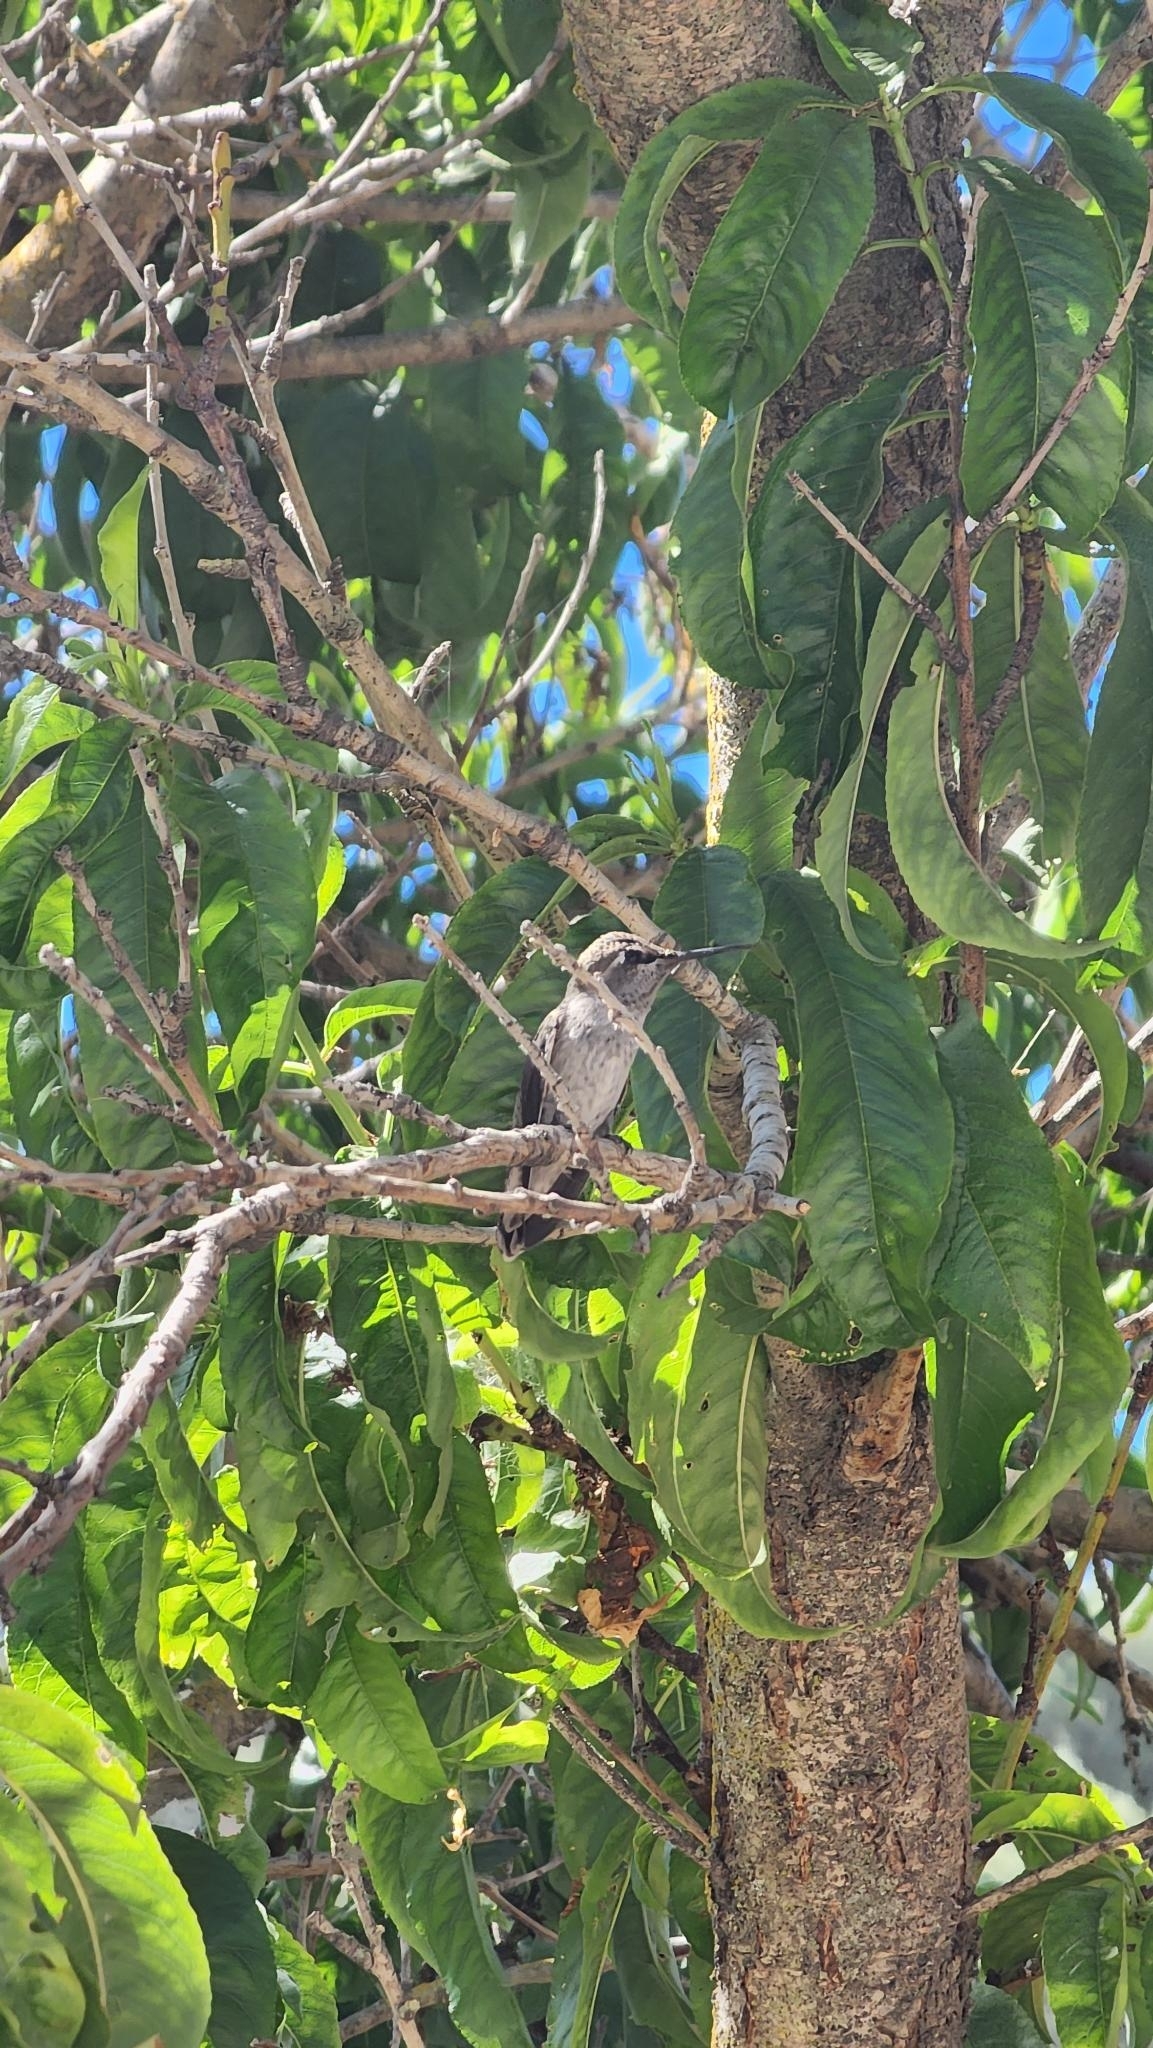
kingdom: Animalia
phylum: Chordata
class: Aves
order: Apodiformes
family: Trochilidae
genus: Calypte
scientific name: Calypte anna
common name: Anna's hummingbird
